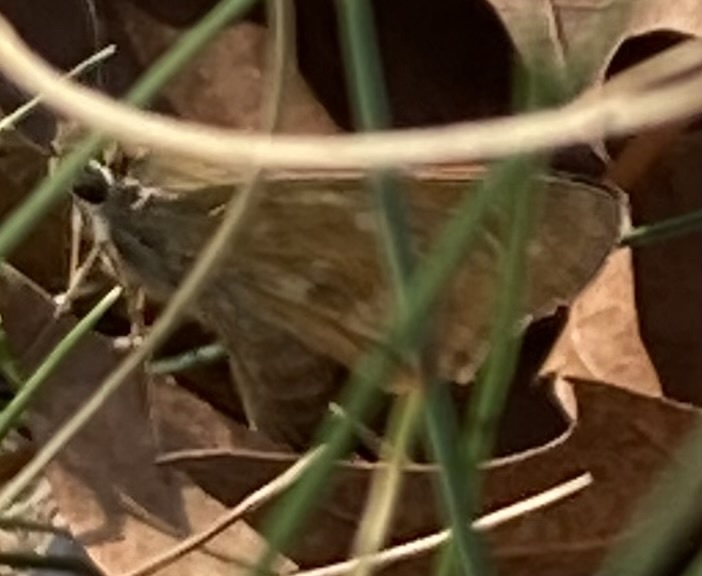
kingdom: Animalia
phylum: Arthropoda
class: Insecta
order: Lepidoptera
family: Hesperiidae
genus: Atalopedes
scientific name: Atalopedes
